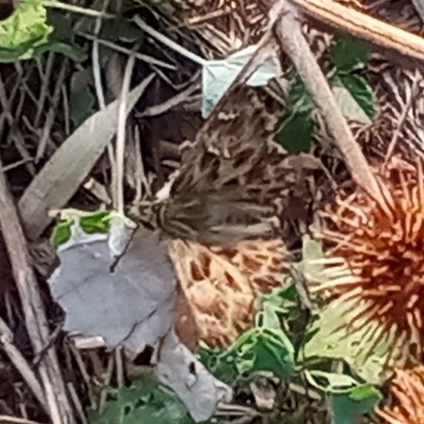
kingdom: Animalia
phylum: Arthropoda
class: Insecta
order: Lepidoptera
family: Hesperiidae
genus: Carcharodus
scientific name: Carcharodus alceae
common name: Mallow skipper
